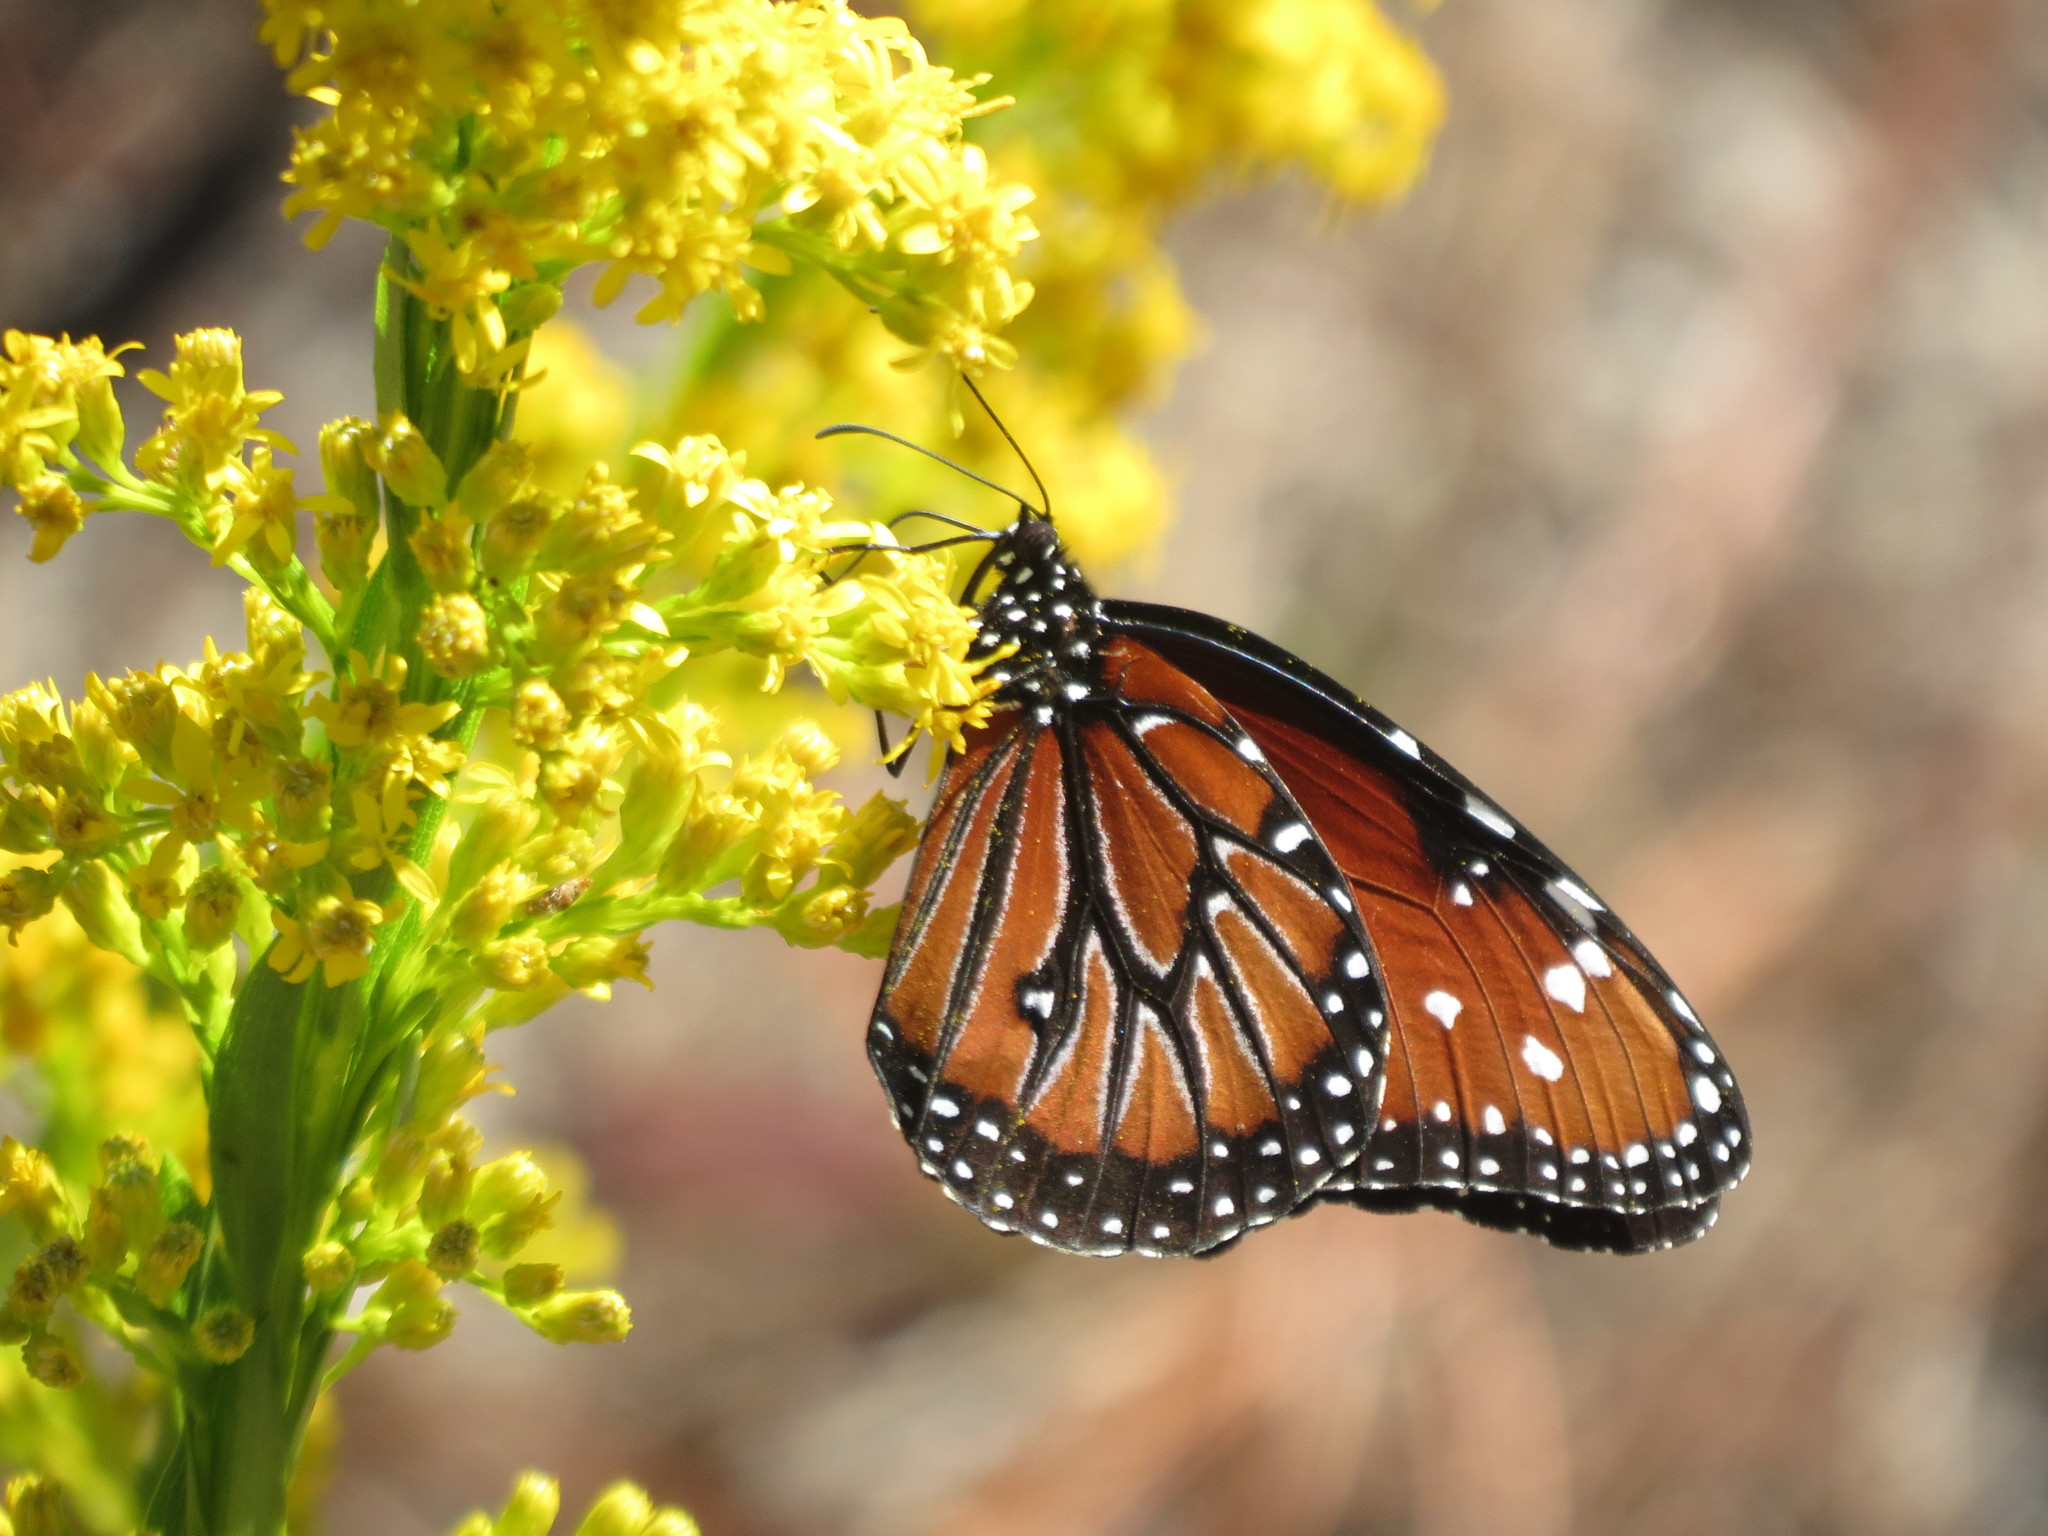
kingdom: Animalia
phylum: Arthropoda
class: Insecta
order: Lepidoptera
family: Nymphalidae
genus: Danaus
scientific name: Danaus gilippus
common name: Queen
